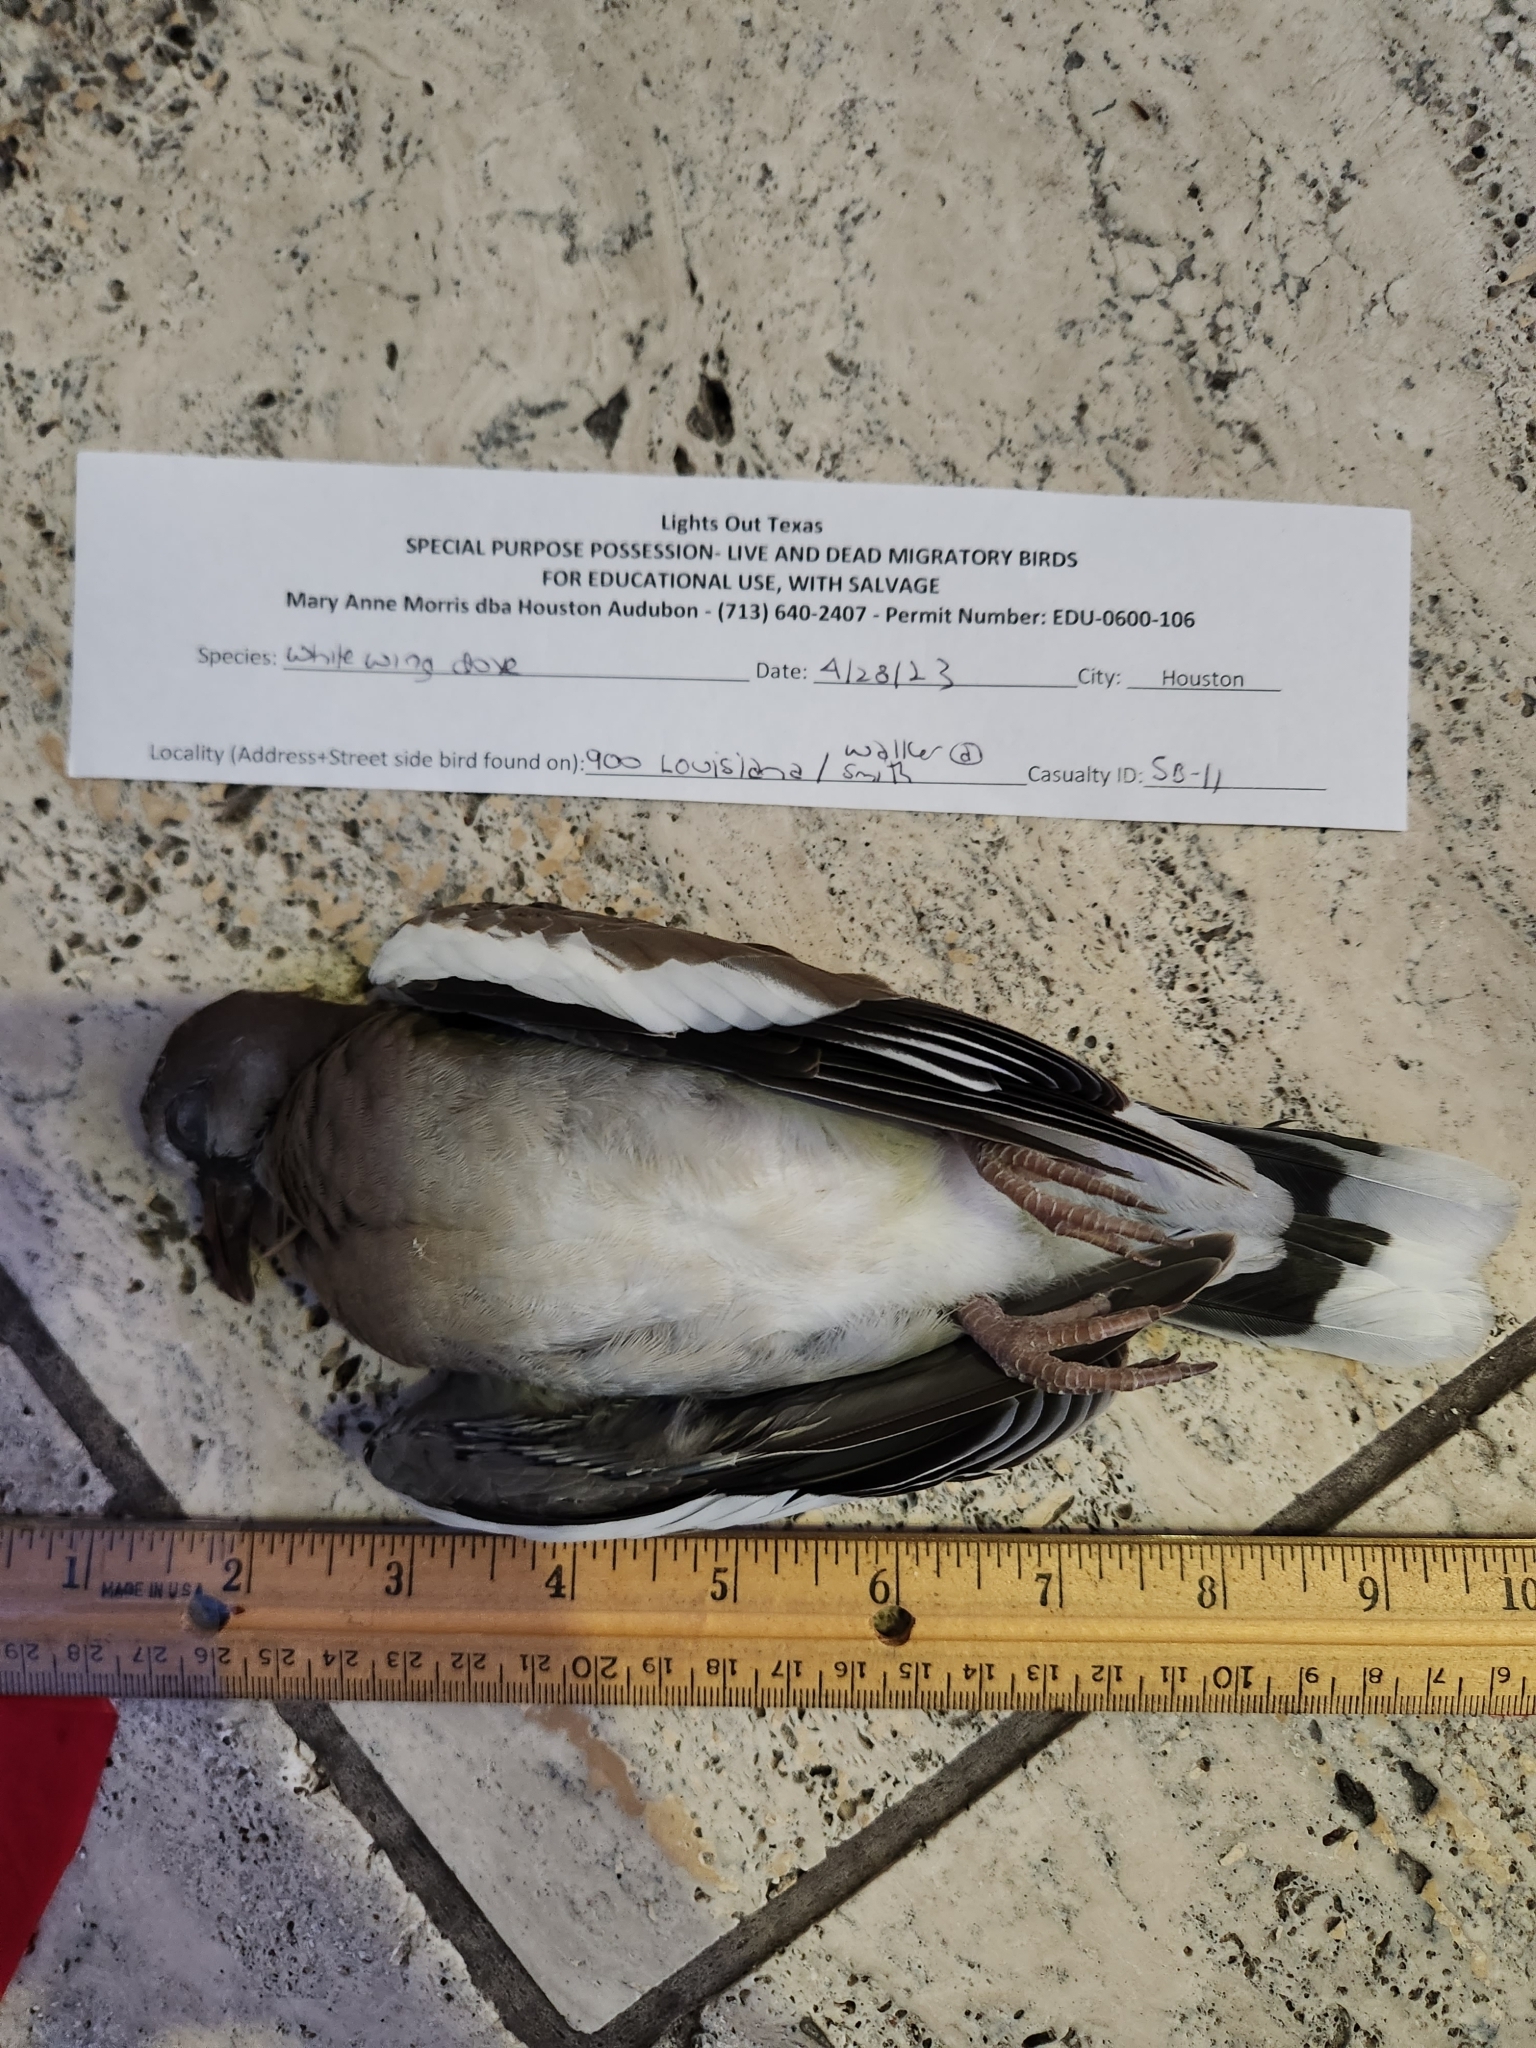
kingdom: Animalia
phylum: Chordata
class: Aves
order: Columbiformes
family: Columbidae
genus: Zenaida
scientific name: Zenaida asiatica
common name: White-winged dove
